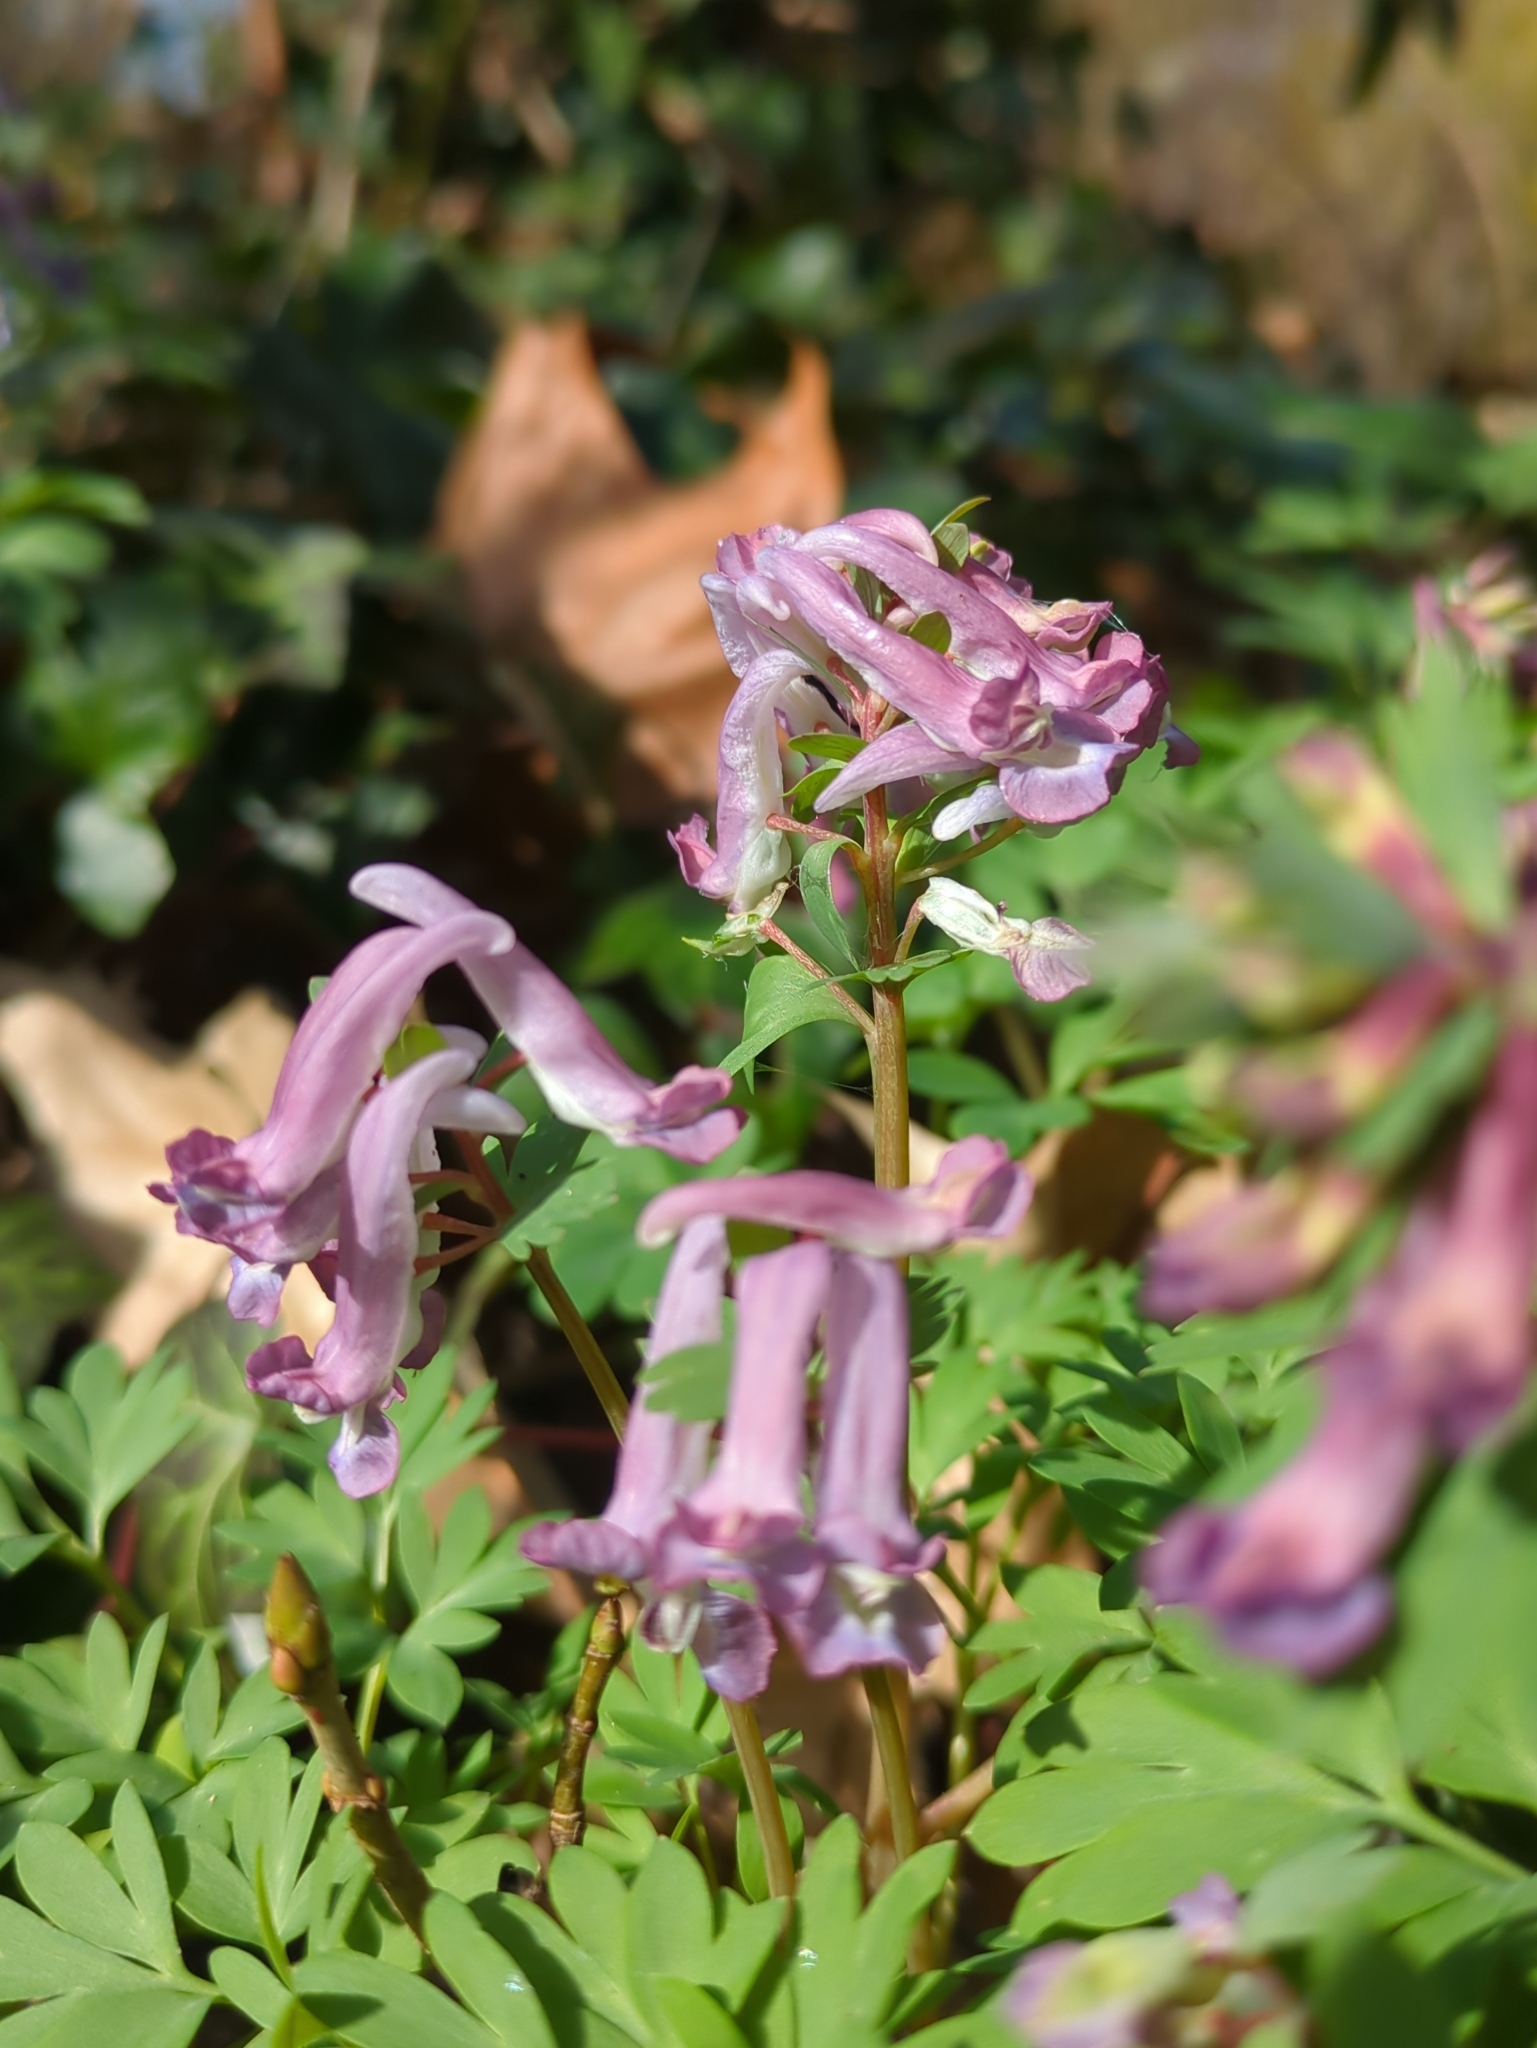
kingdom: Plantae
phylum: Tracheophyta
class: Magnoliopsida
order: Ranunculales
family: Papaveraceae
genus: Corydalis
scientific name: Corydalis solida
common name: Bird-in-a-bush
